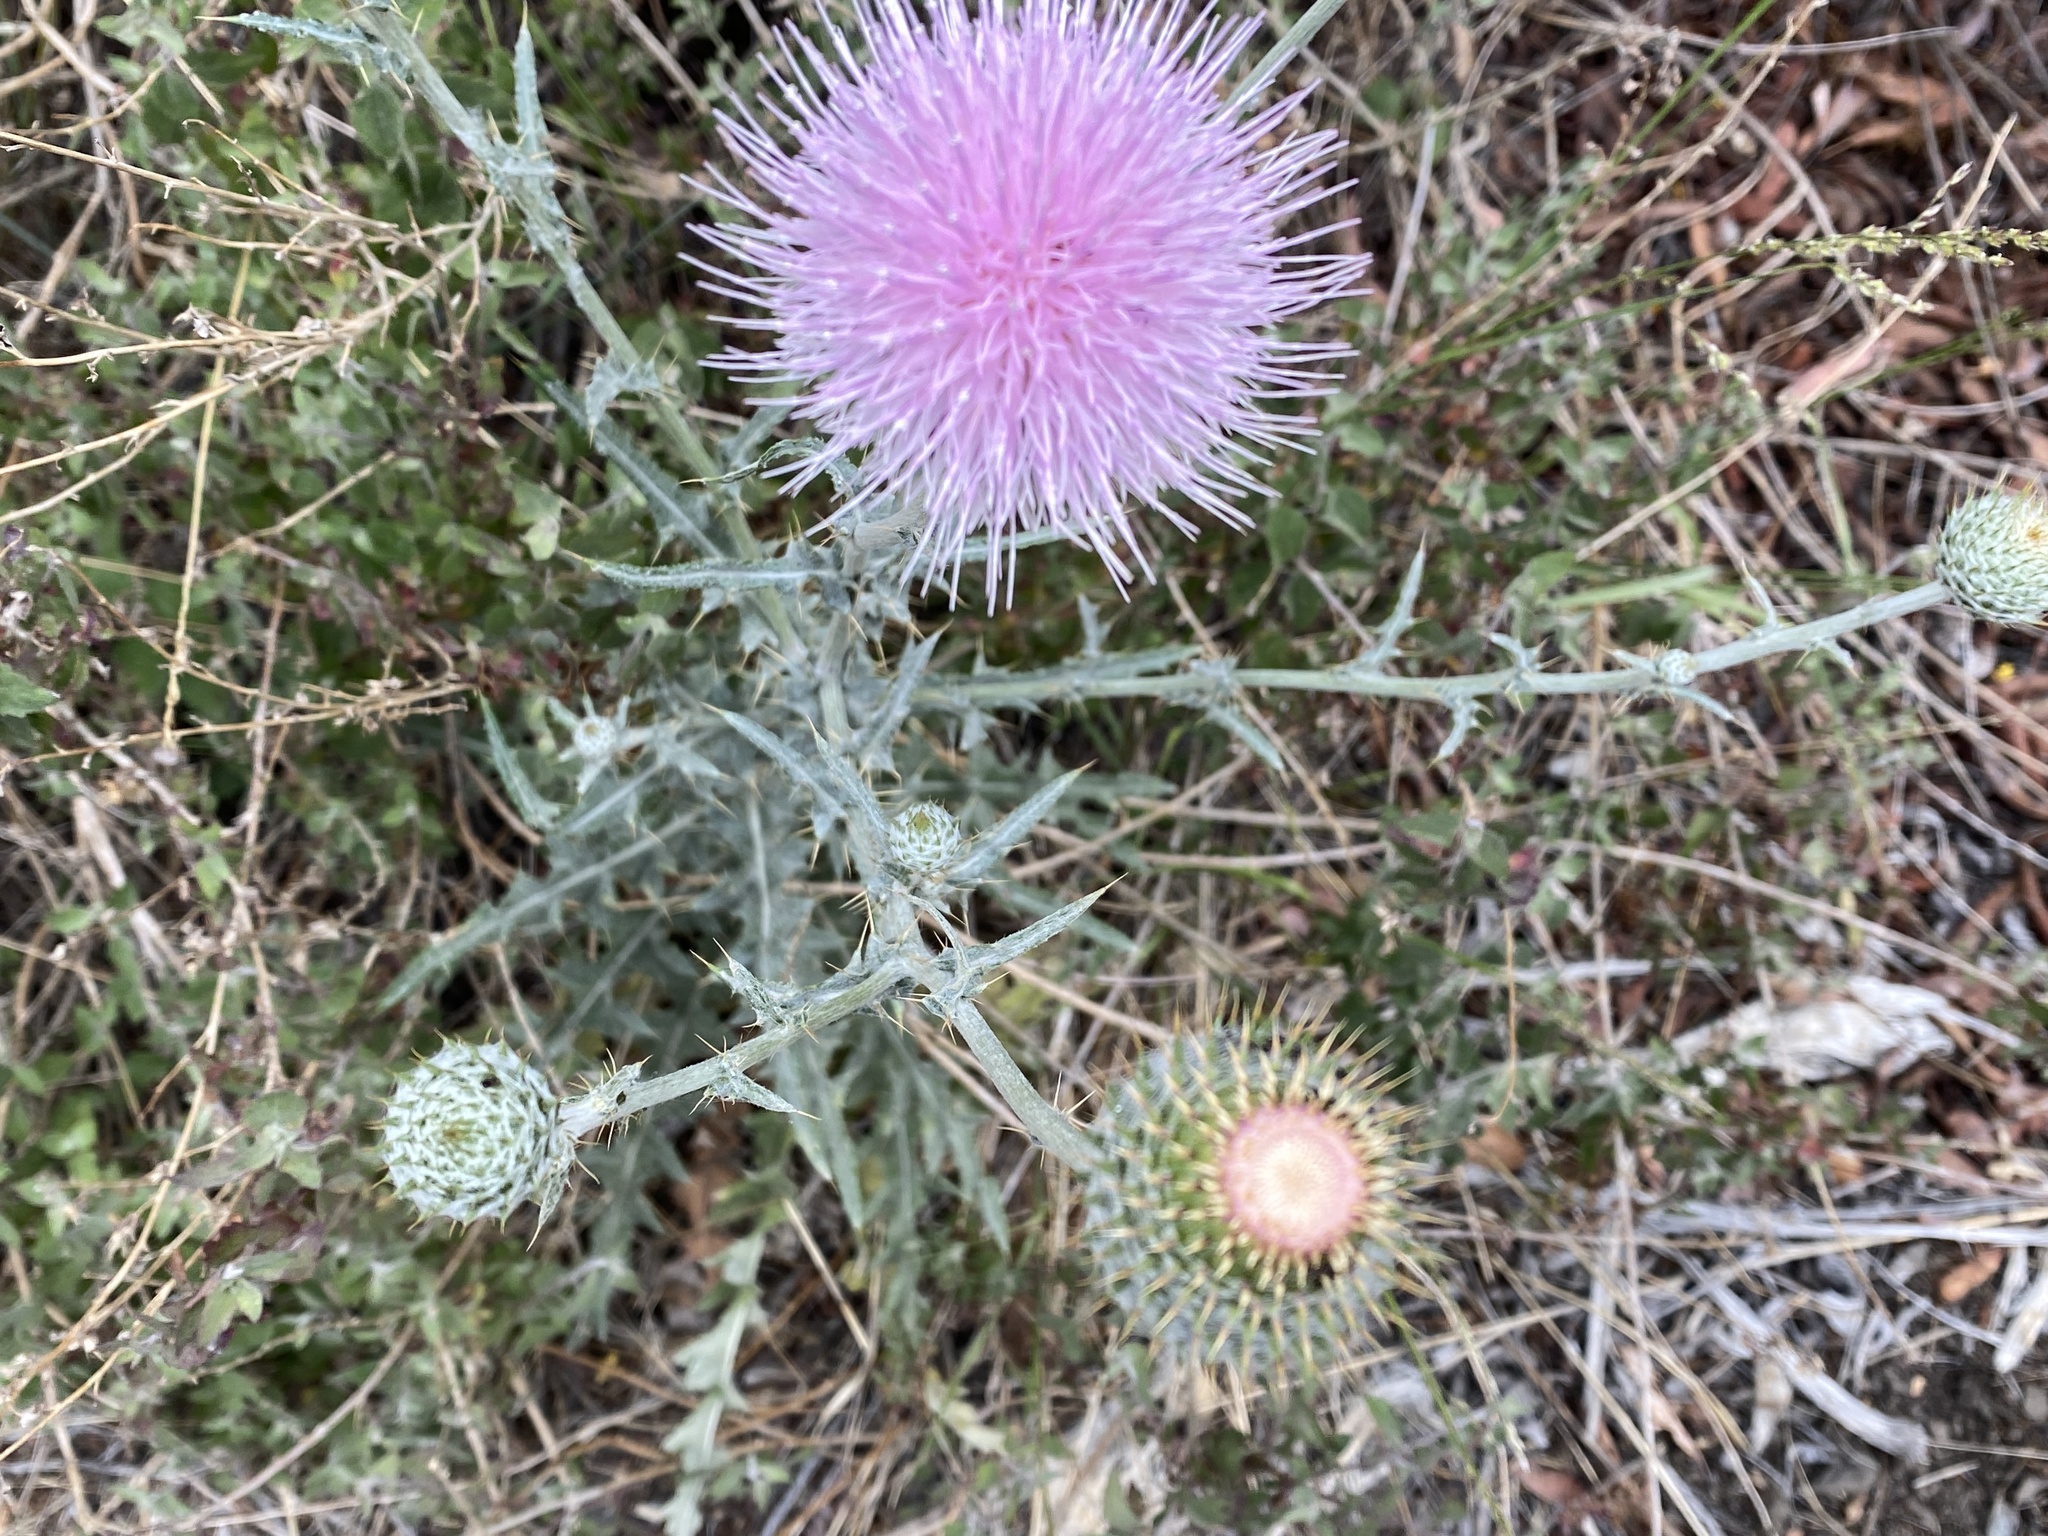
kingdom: Plantae
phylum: Tracheophyta
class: Magnoliopsida
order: Asterales
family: Asteraceae
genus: Cirsium
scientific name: Cirsium occidentale
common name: Western thistle
